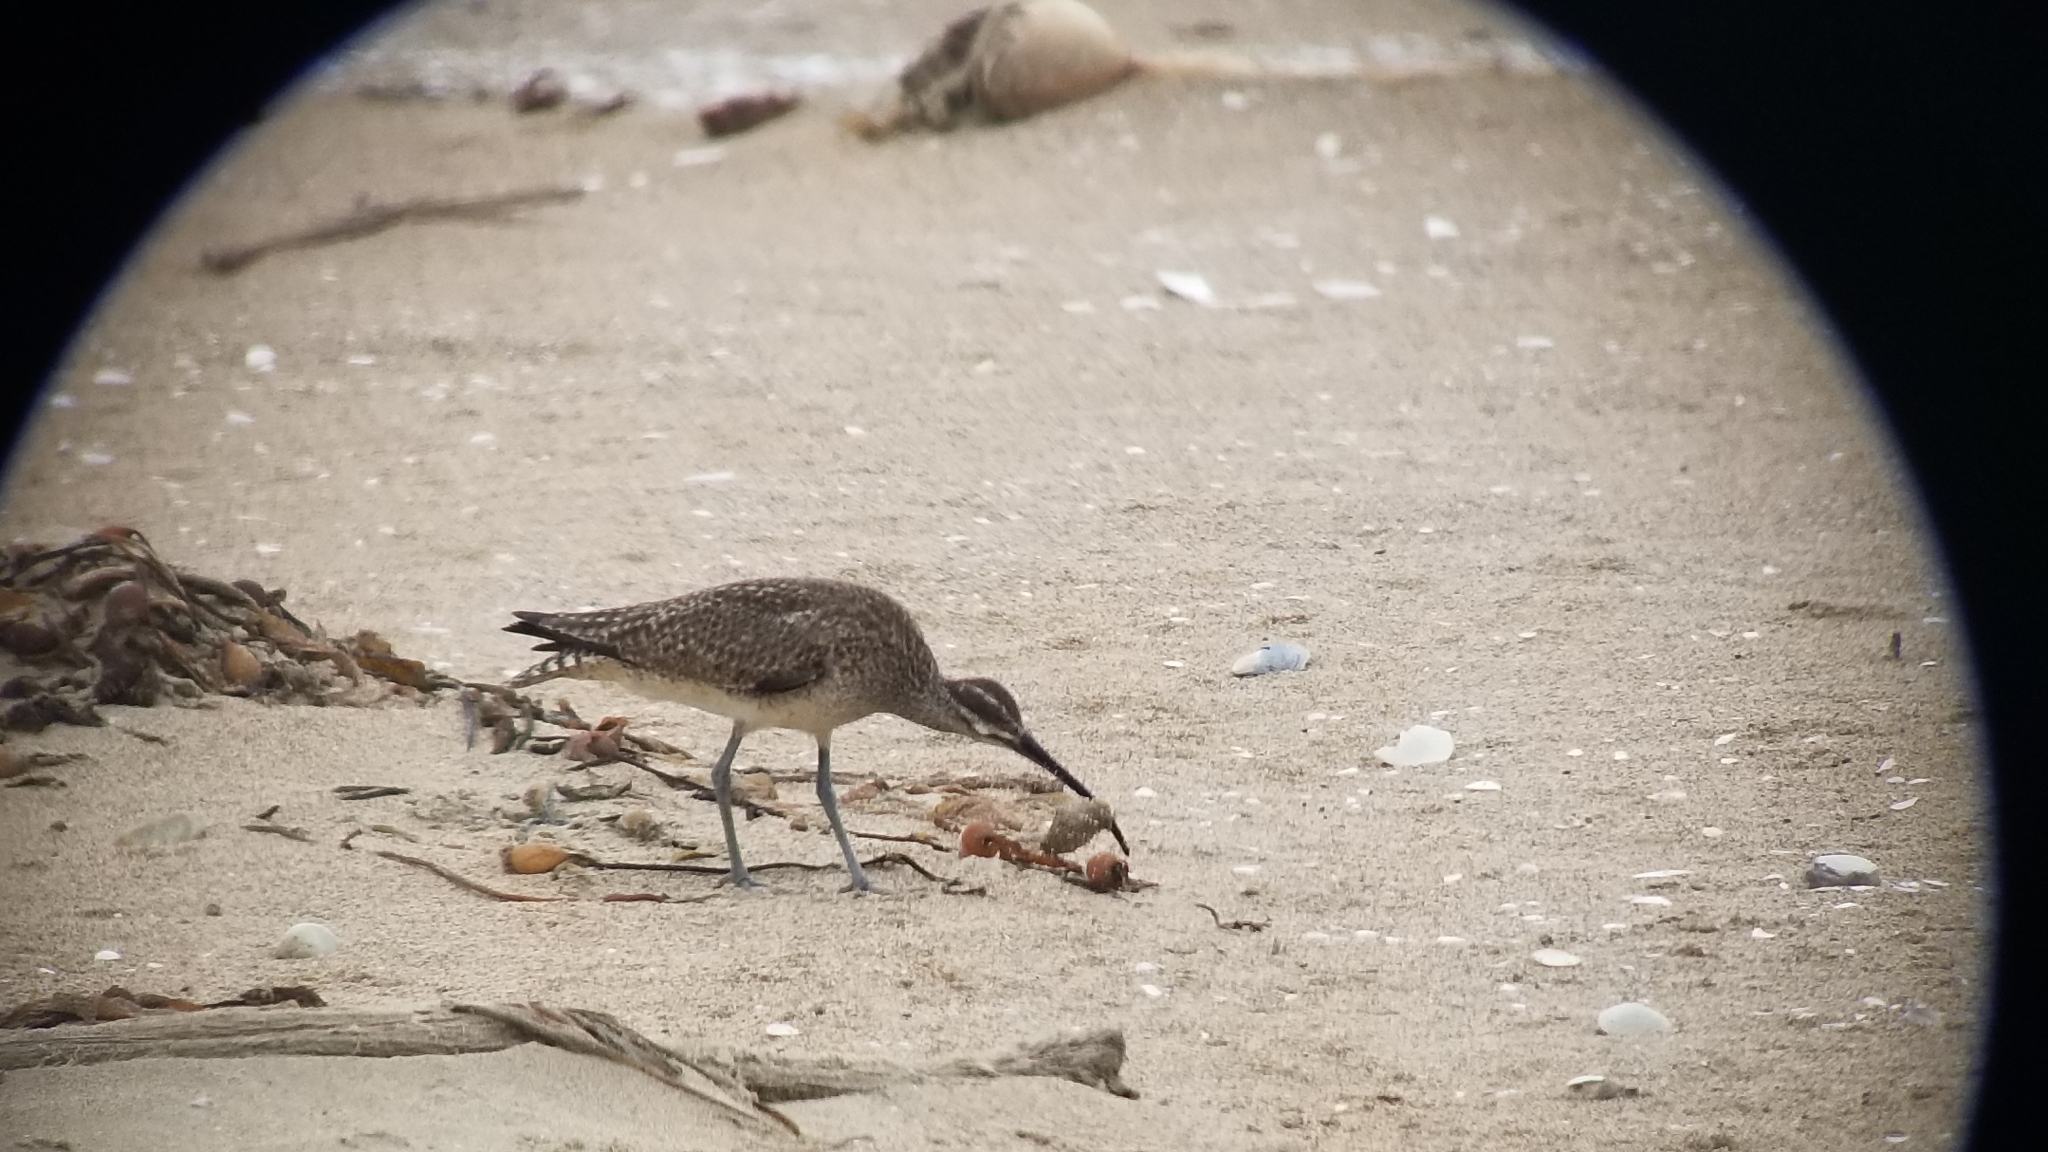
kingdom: Animalia
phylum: Chordata
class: Aves
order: Charadriiformes
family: Scolopacidae
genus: Numenius
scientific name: Numenius phaeopus
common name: Whimbrel
